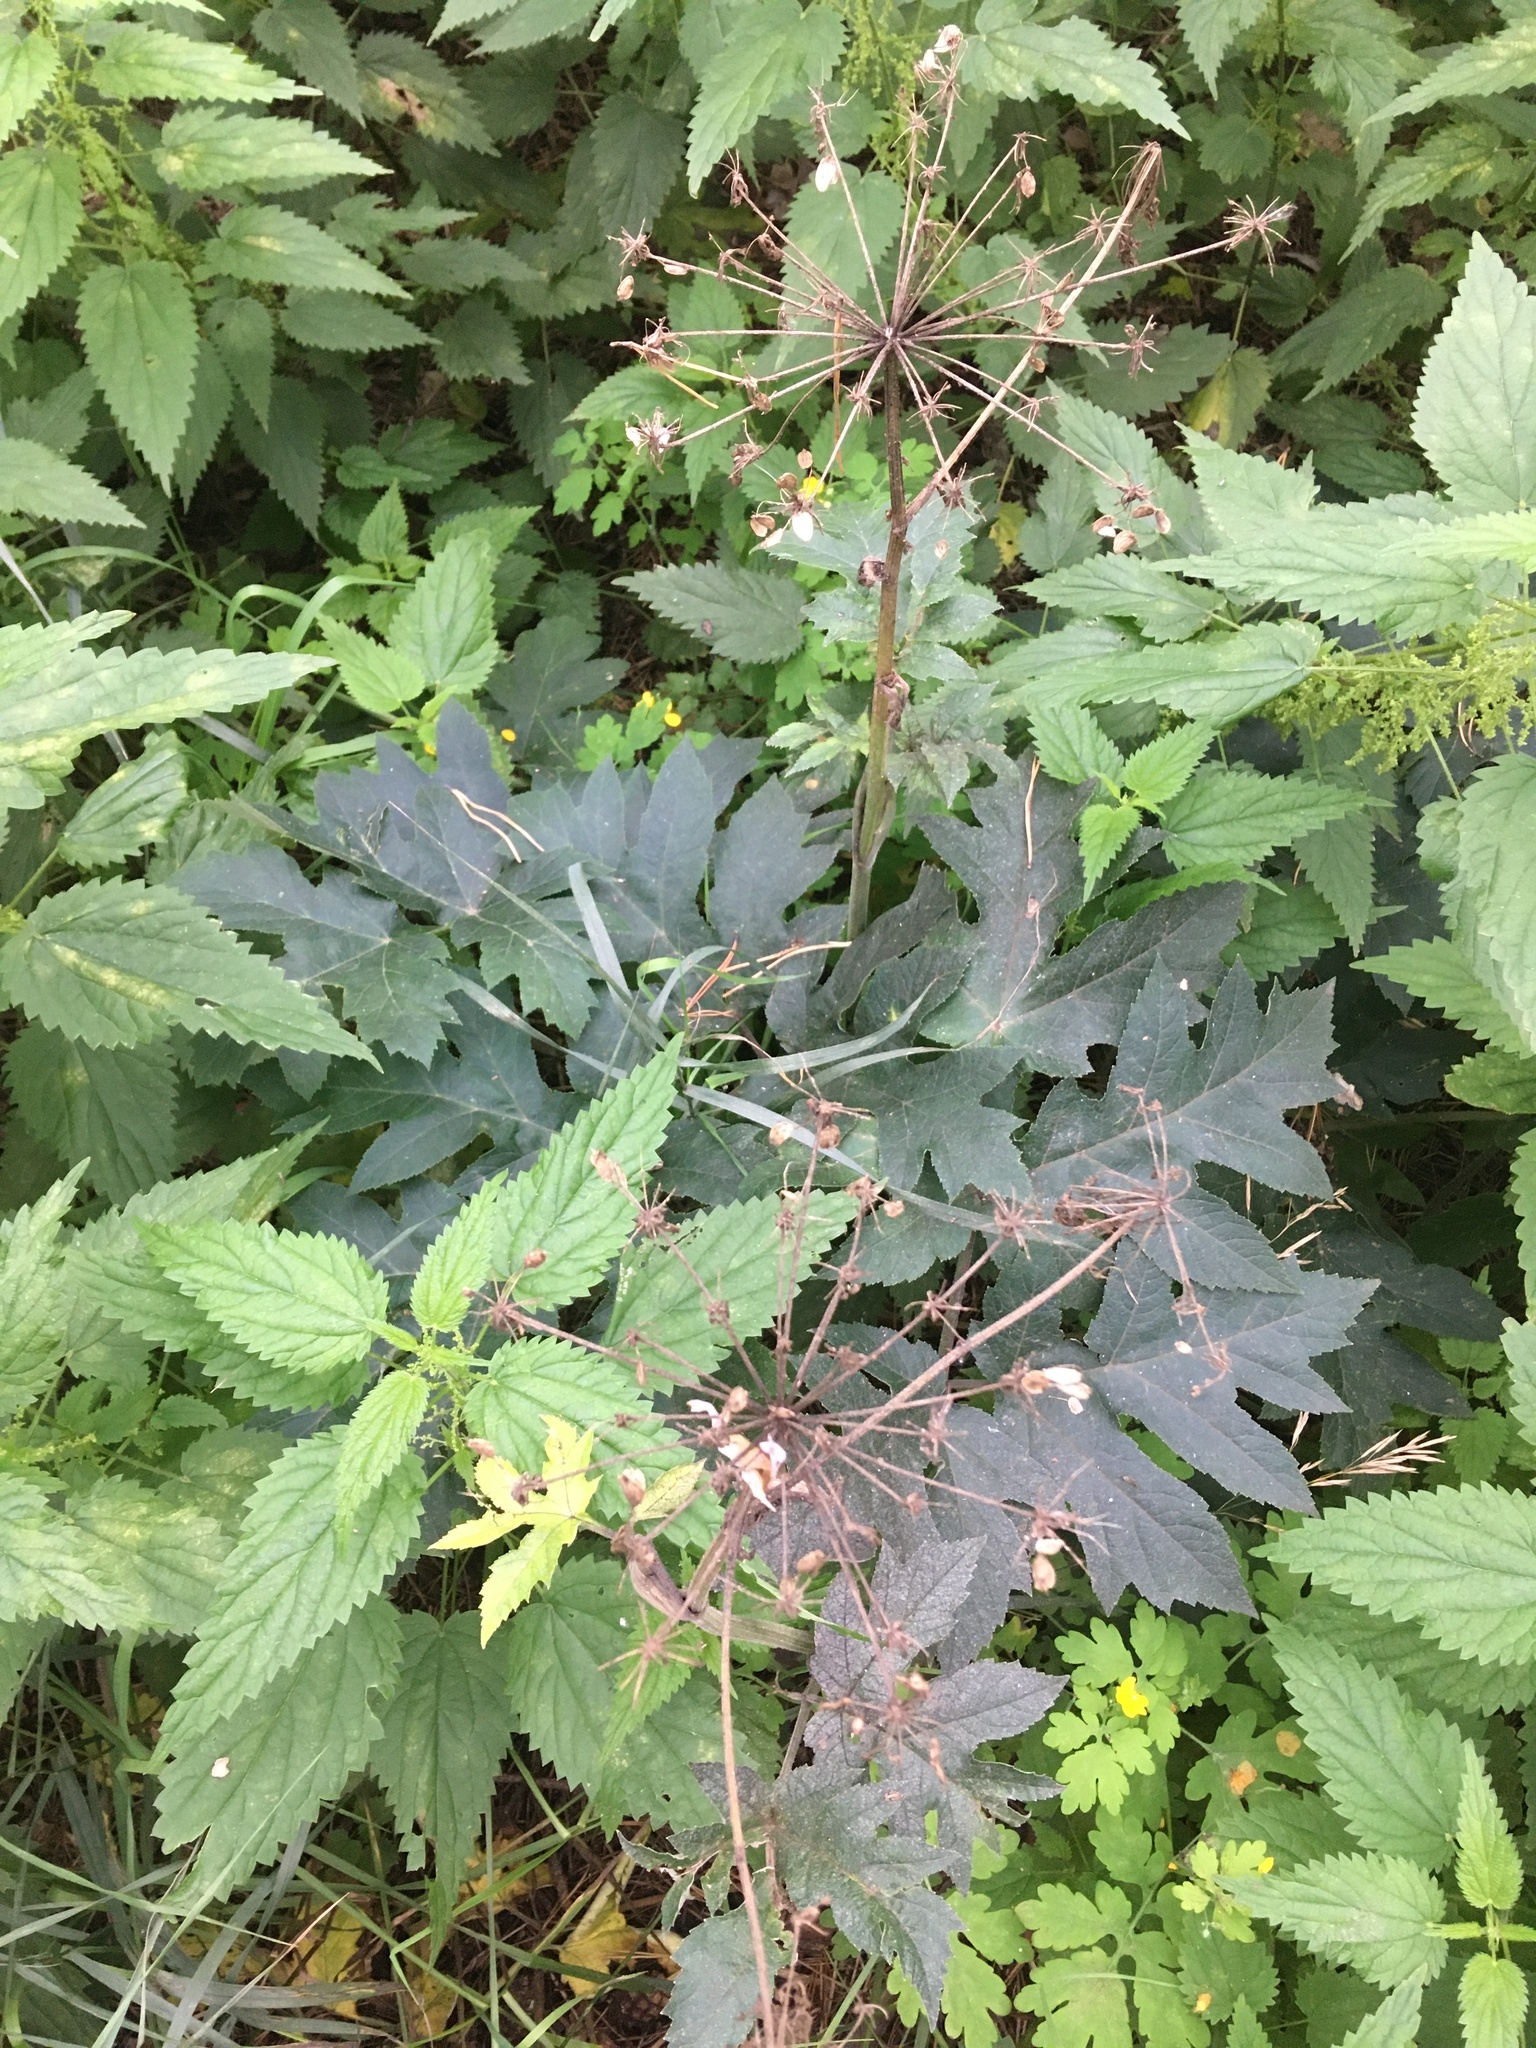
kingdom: Plantae
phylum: Tracheophyta
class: Magnoliopsida
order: Apiales
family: Apiaceae
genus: Heracleum
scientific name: Heracleum dissectum
